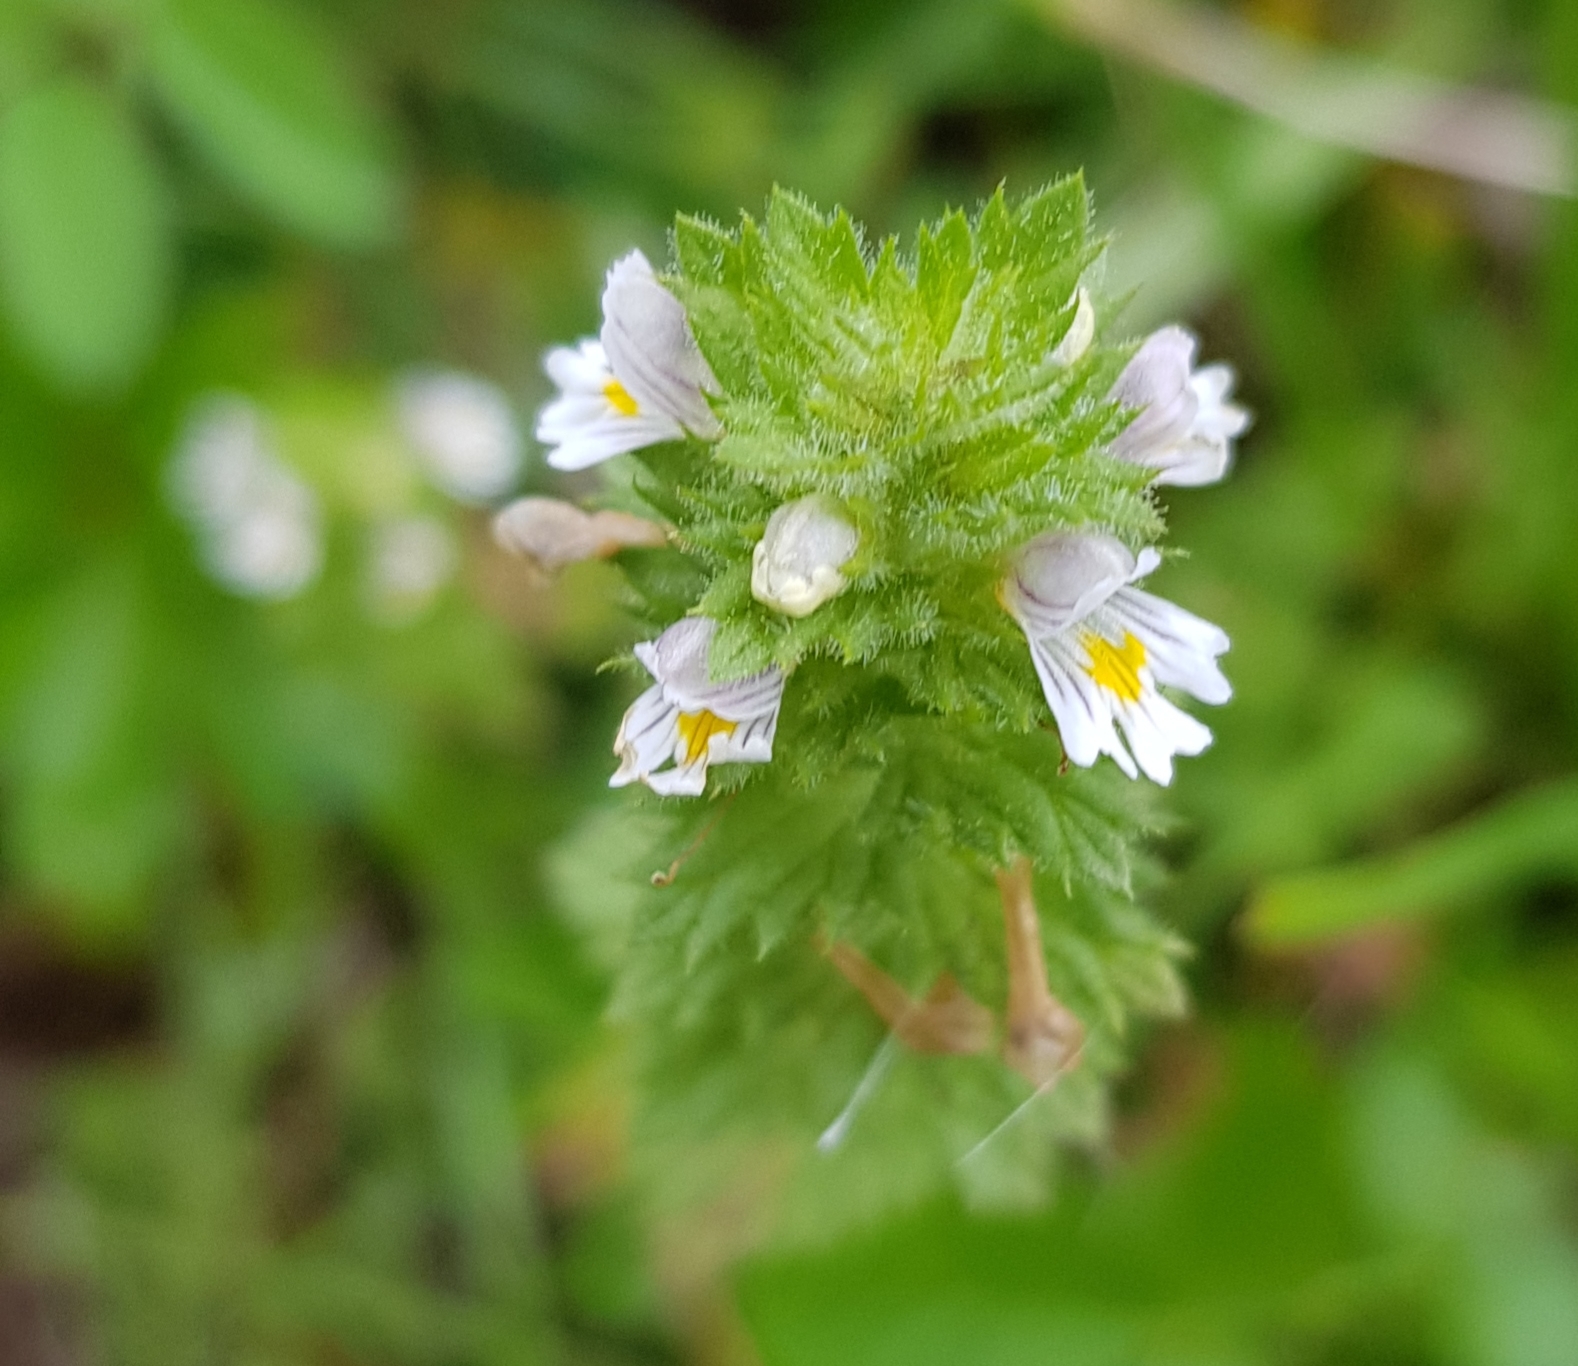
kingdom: Plantae
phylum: Tracheophyta
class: Magnoliopsida
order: Lamiales
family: Orobanchaceae
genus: Euphrasia
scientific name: Euphrasia pectinata
